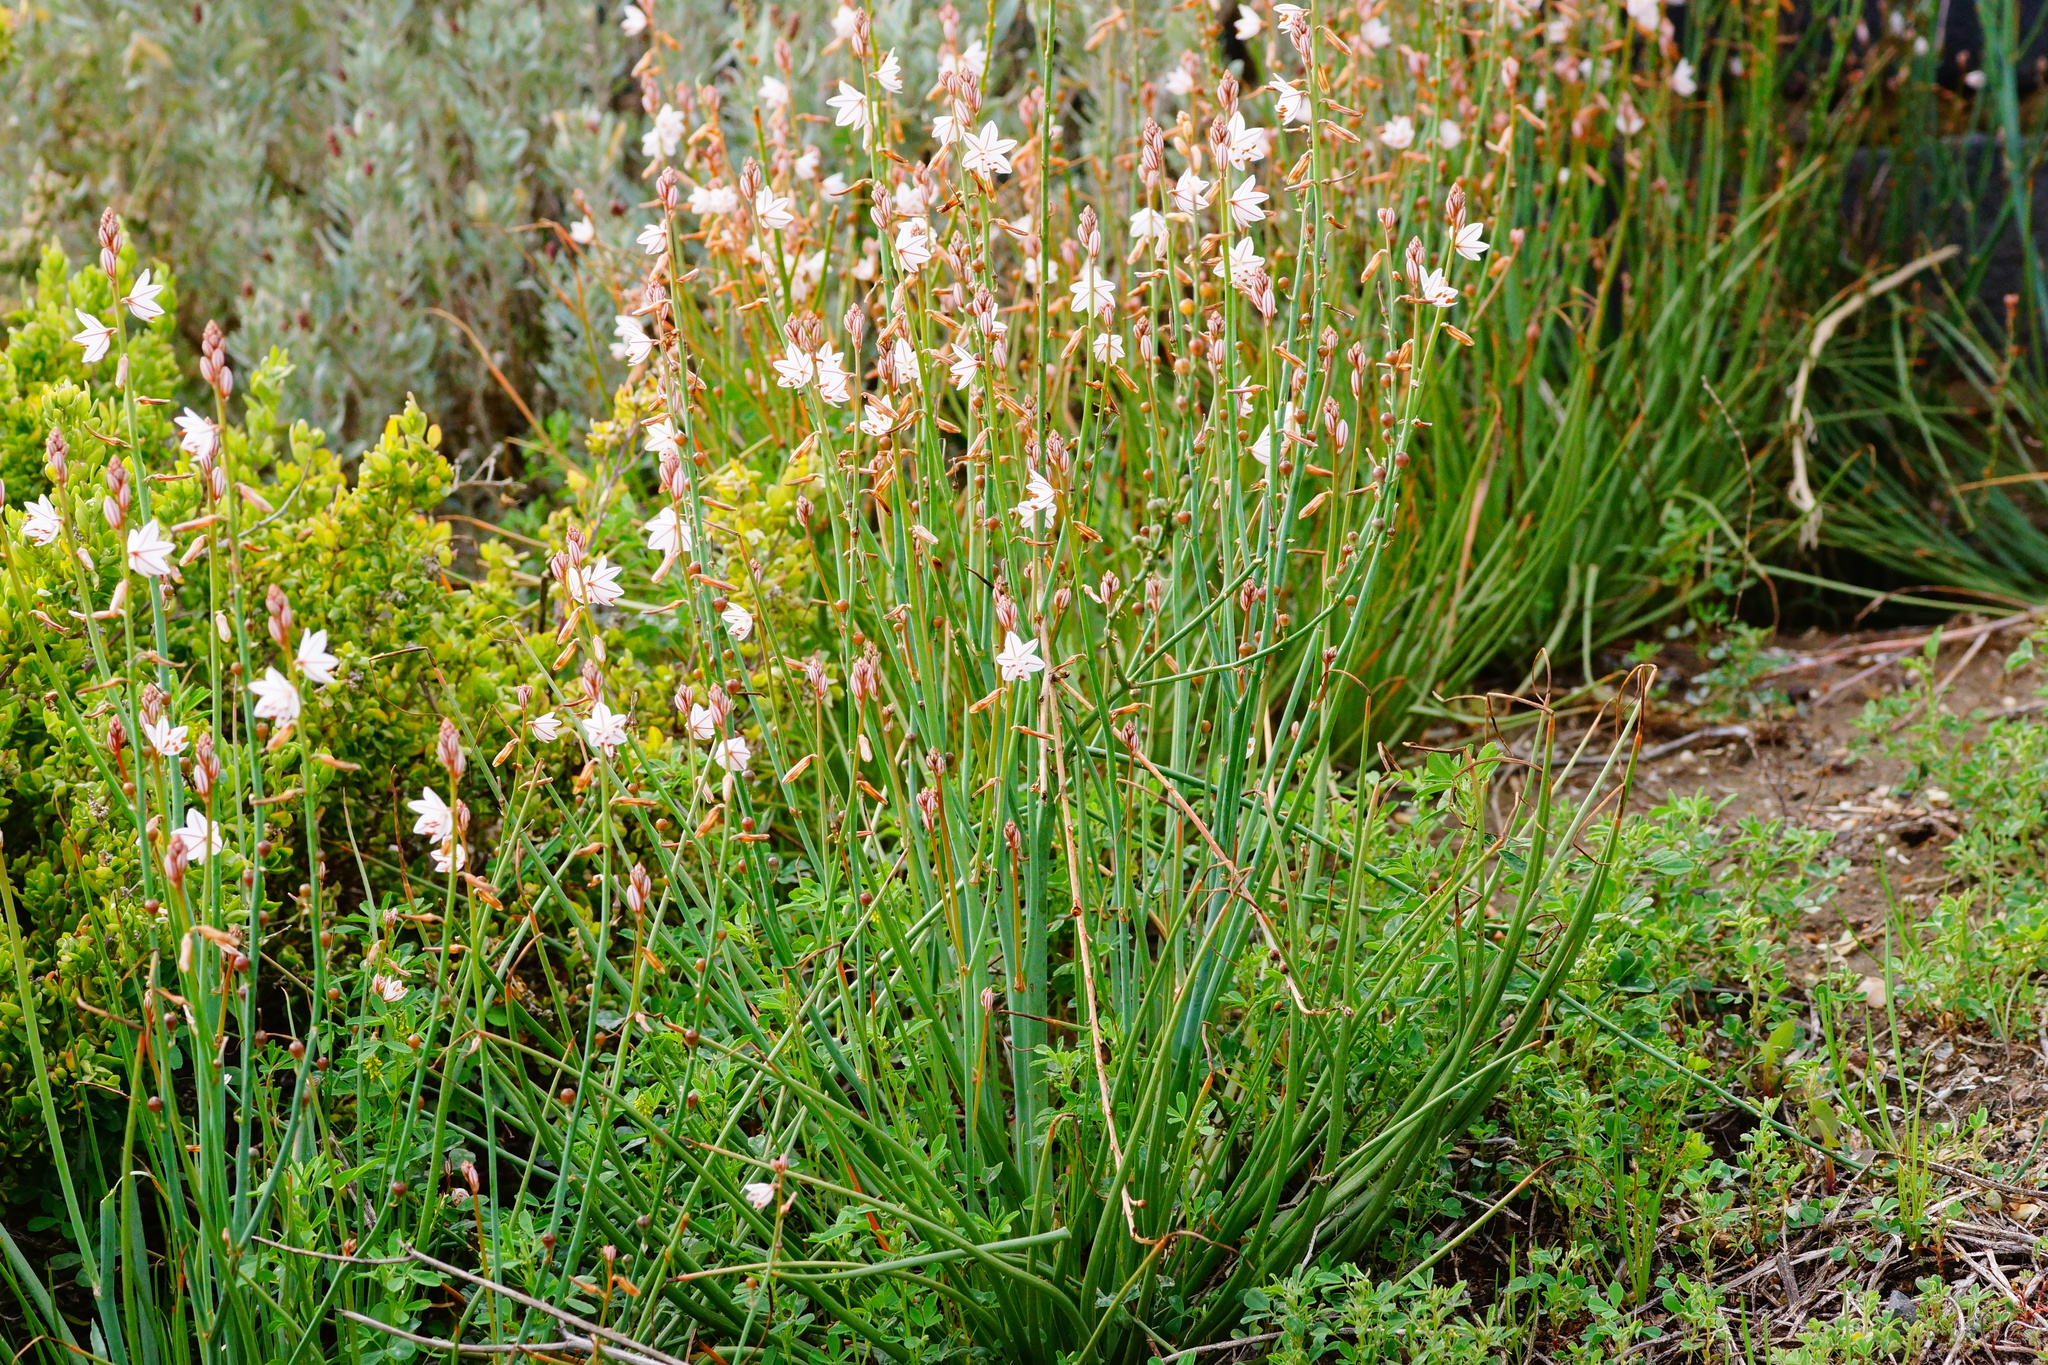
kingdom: Plantae
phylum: Tracheophyta
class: Liliopsida
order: Asparagales
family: Asphodelaceae
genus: Asphodelus
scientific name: Asphodelus fistulosus
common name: Onionweed
